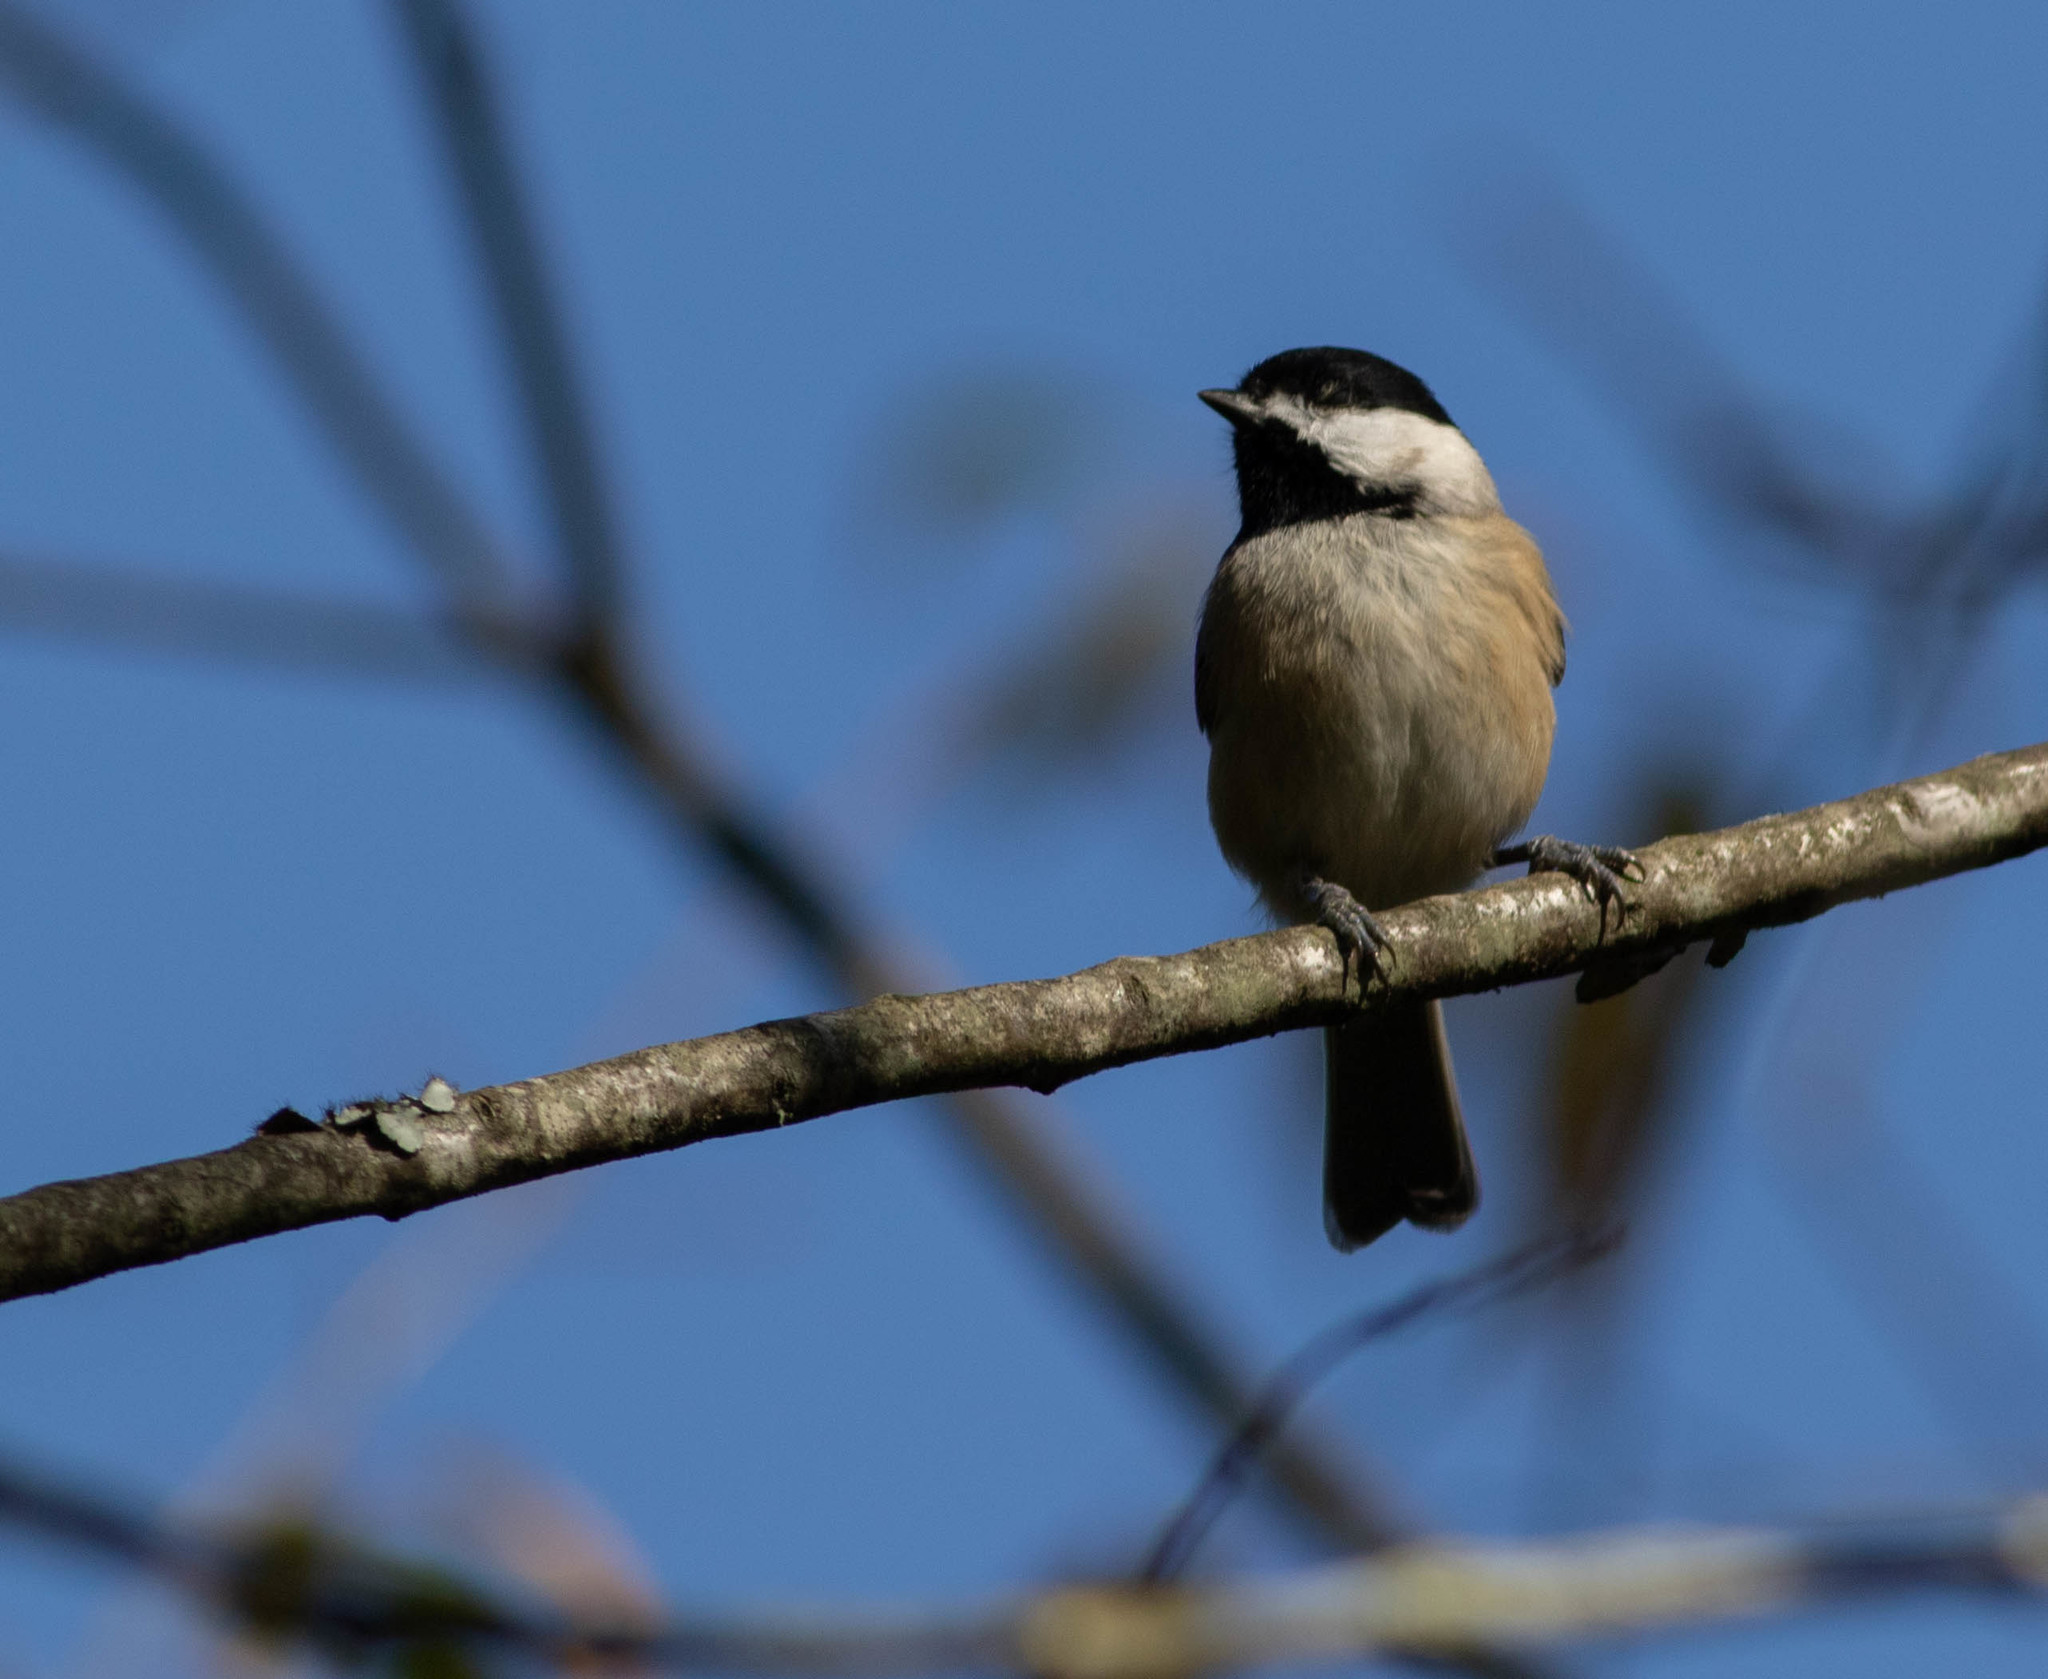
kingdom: Animalia
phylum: Chordata
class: Aves
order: Passeriformes
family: Paridae
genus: Poecile
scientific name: Poecile carolinensis
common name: Carolina chickadee
